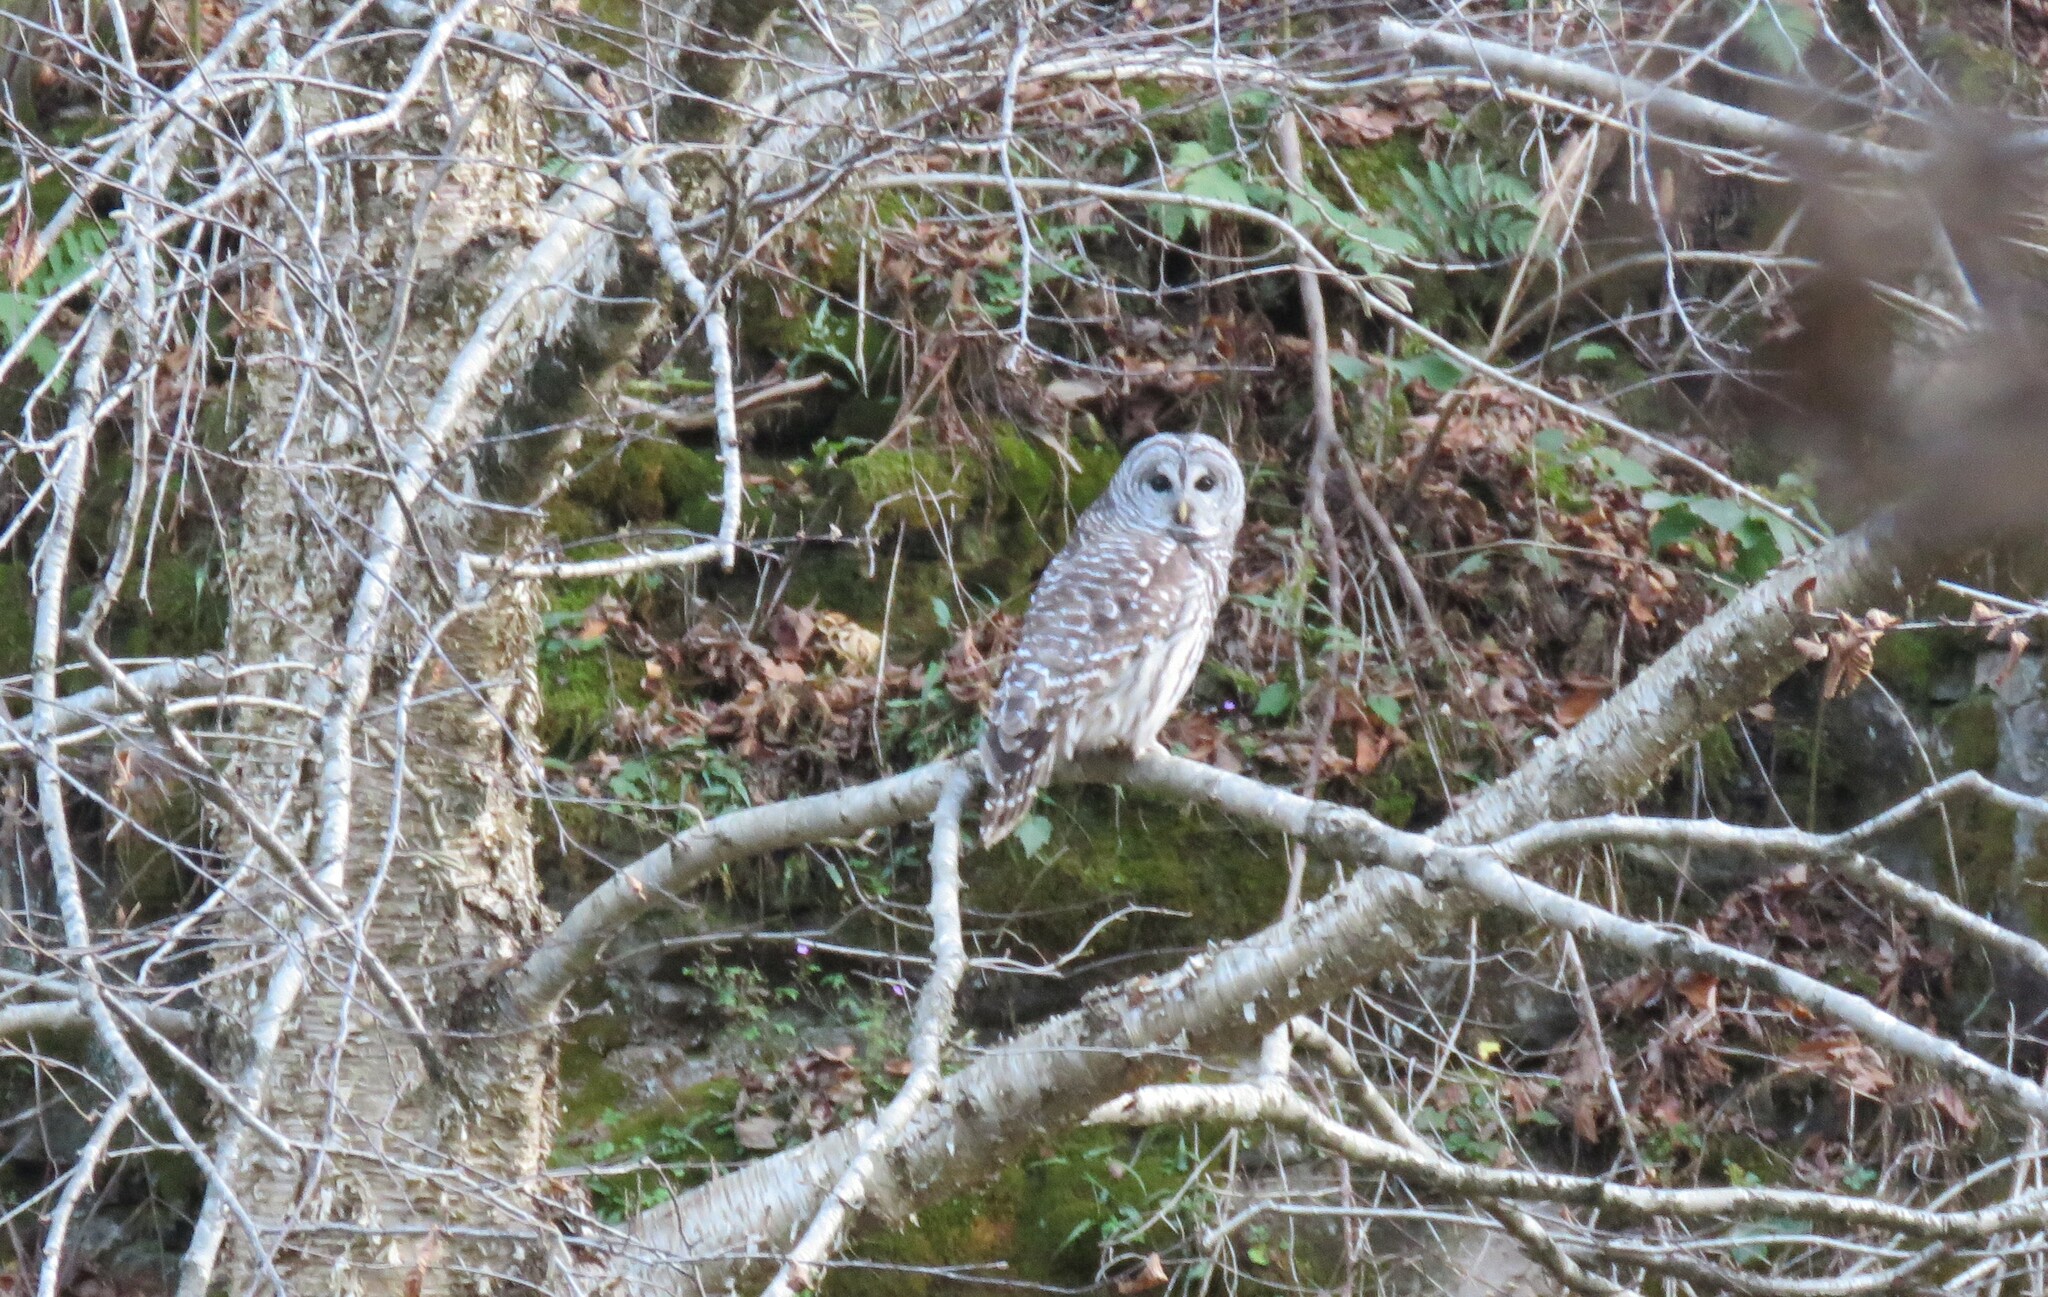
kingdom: Animalia
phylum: Chordata
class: Aves
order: Strigiformes
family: Strigidae
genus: Strix
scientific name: Strix varia
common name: Barred owl
